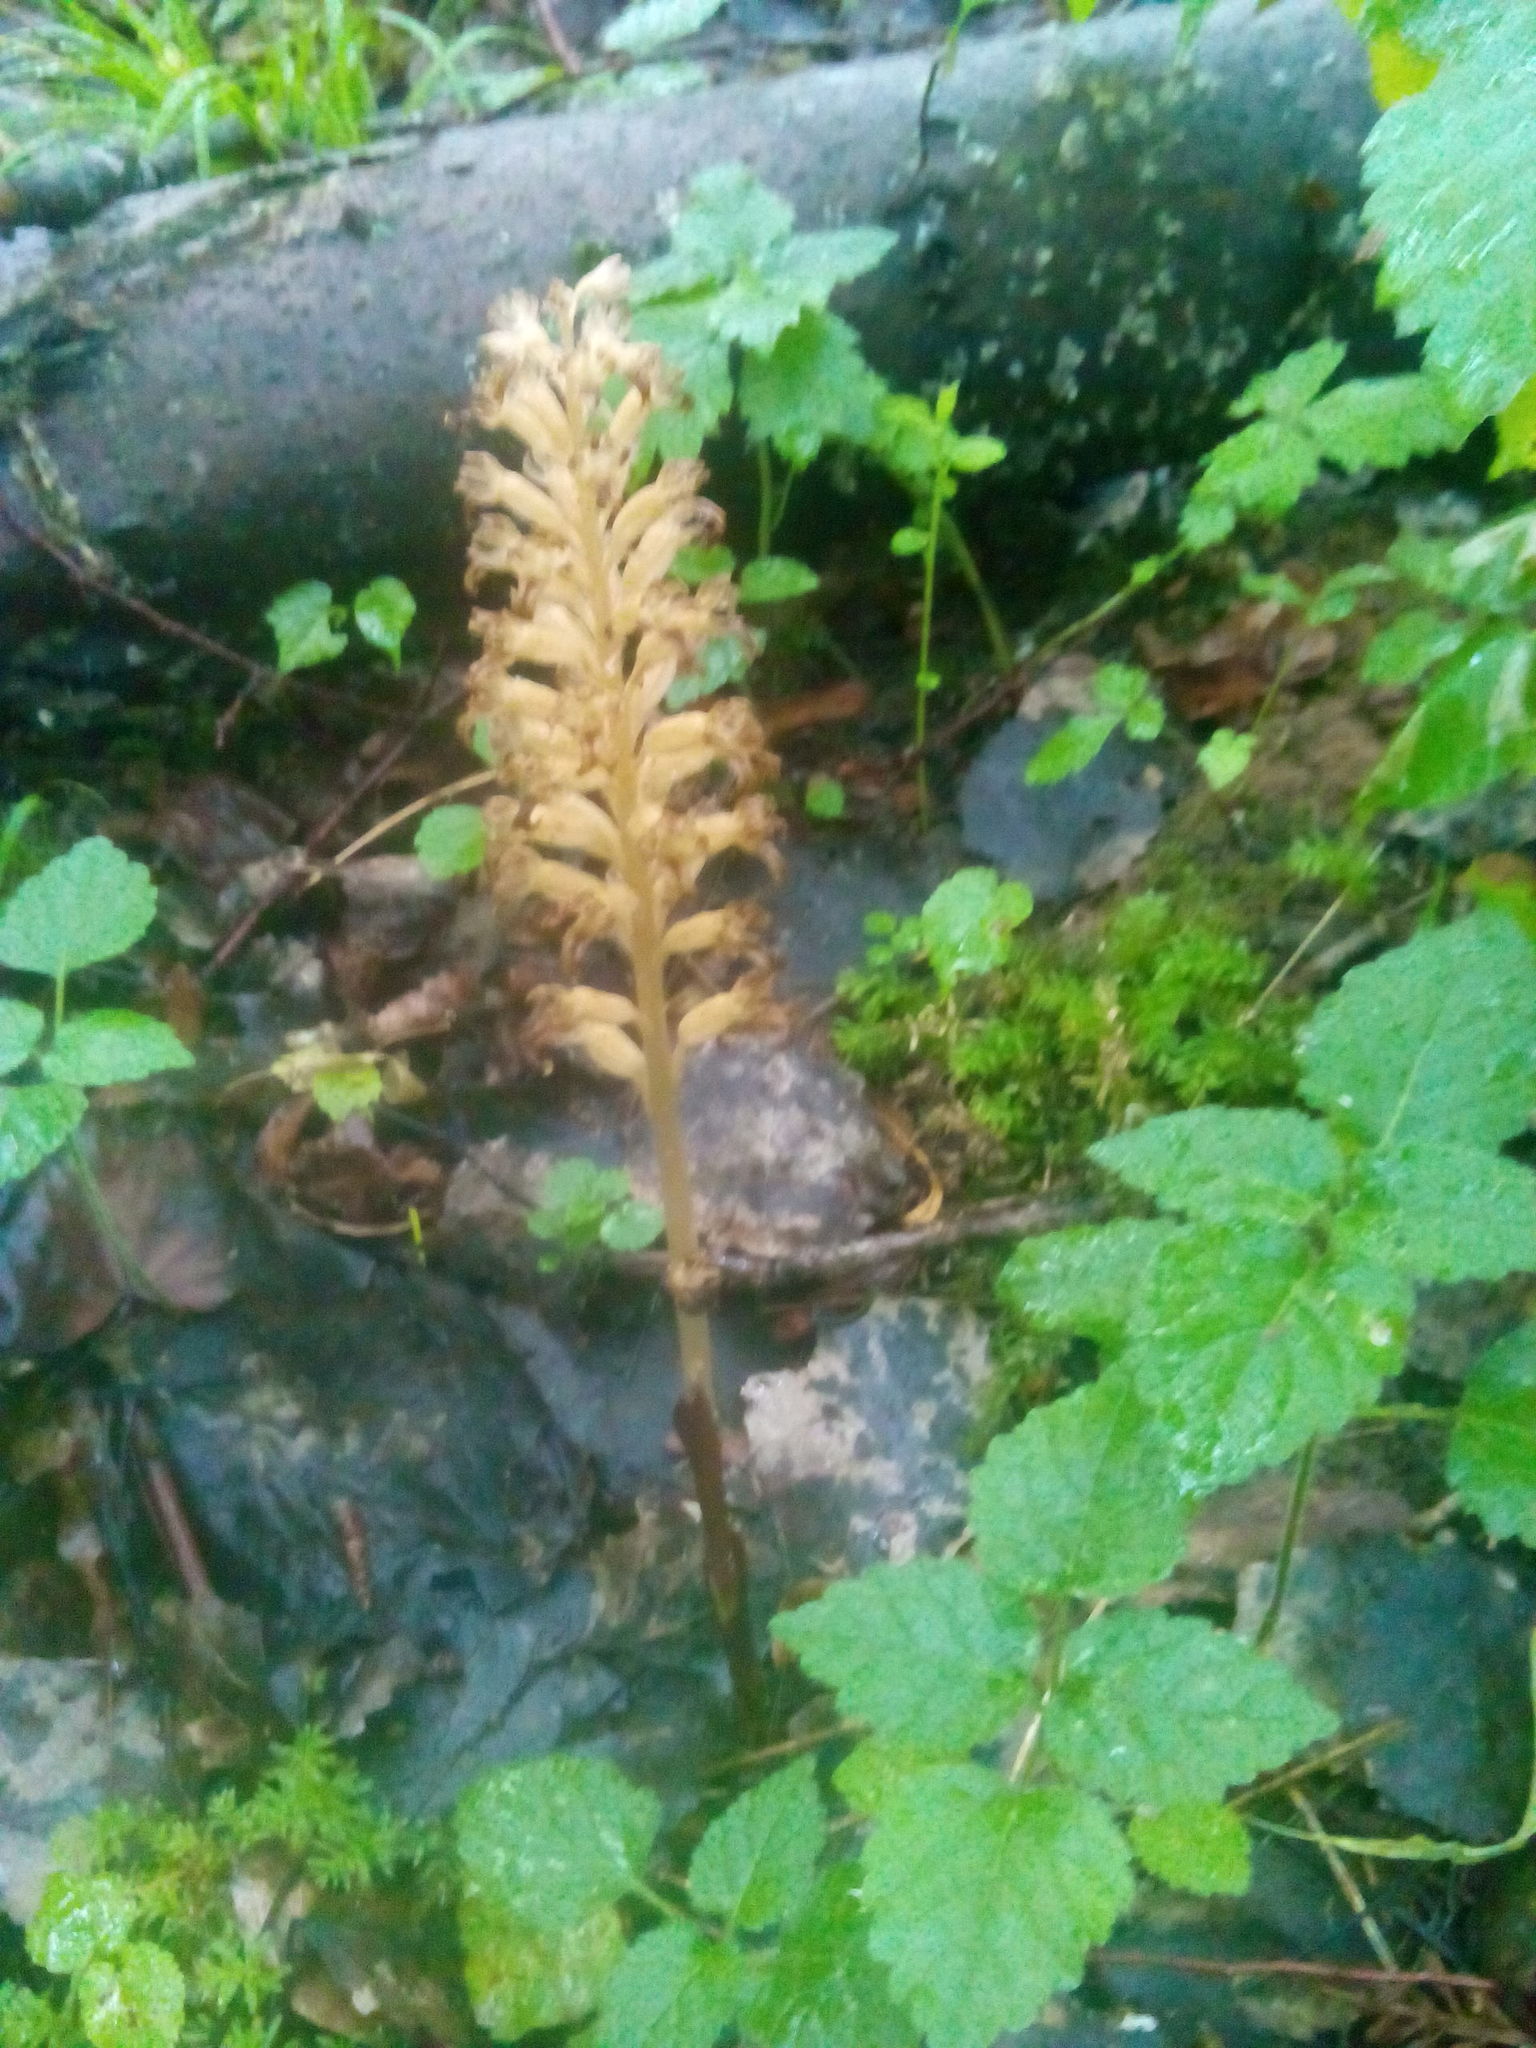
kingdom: Plantae
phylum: Tracheophyta
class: Liliopsida
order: Asparagales
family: Orchidaceae
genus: Neottia
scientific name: Neottia nidus-avis
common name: Bird's-nest orchid
